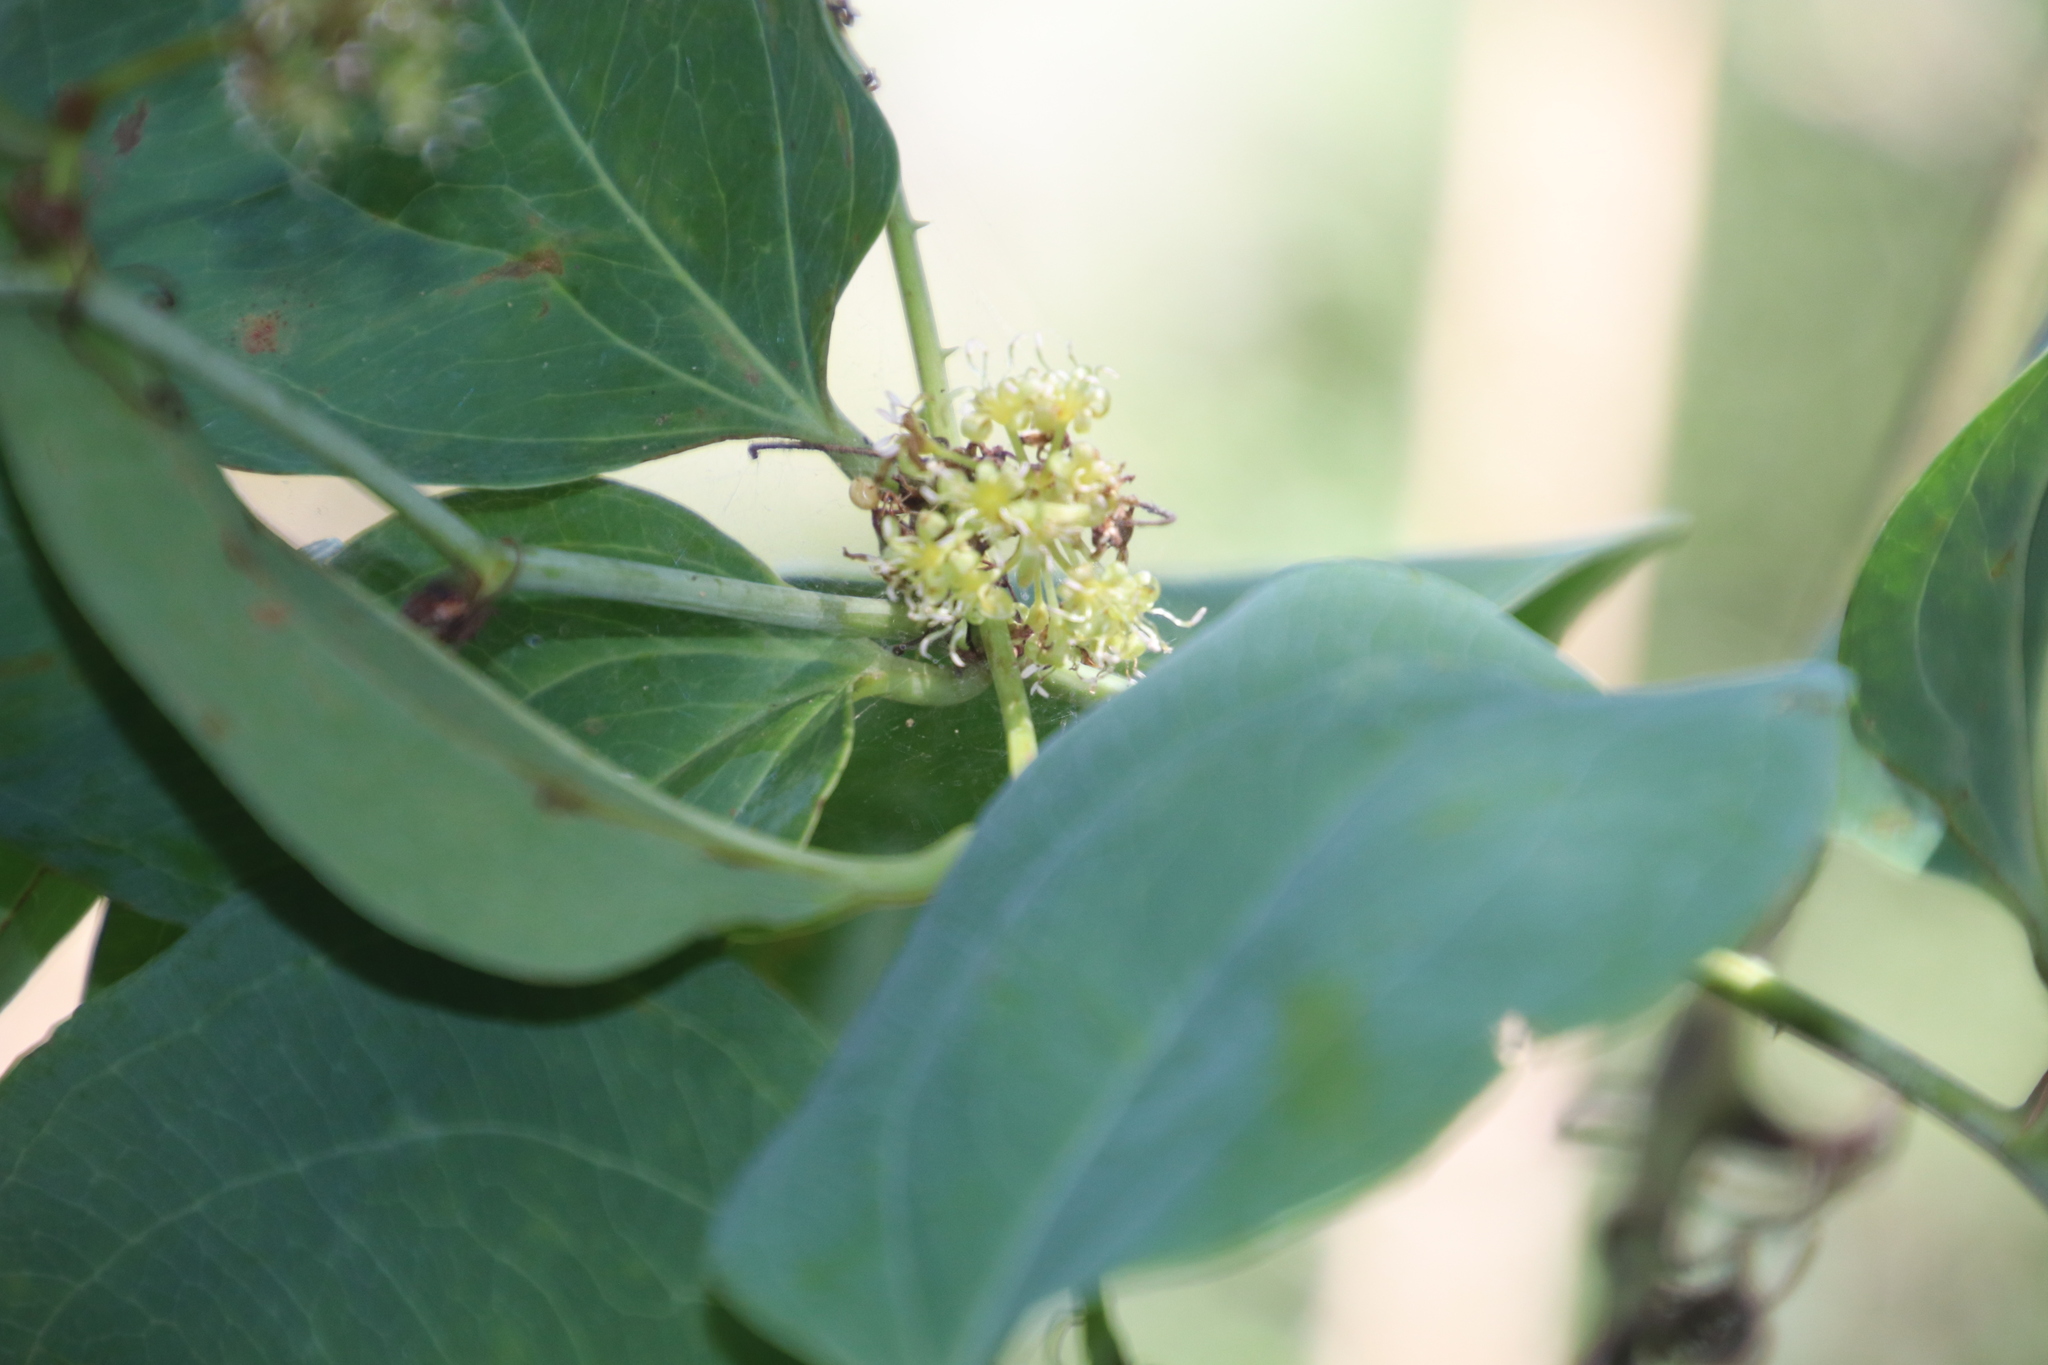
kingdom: Plantae
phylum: Tracheophyta
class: Liliopsida
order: Liliales
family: Smilacaceae
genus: Smilax
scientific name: Smilax anceps
